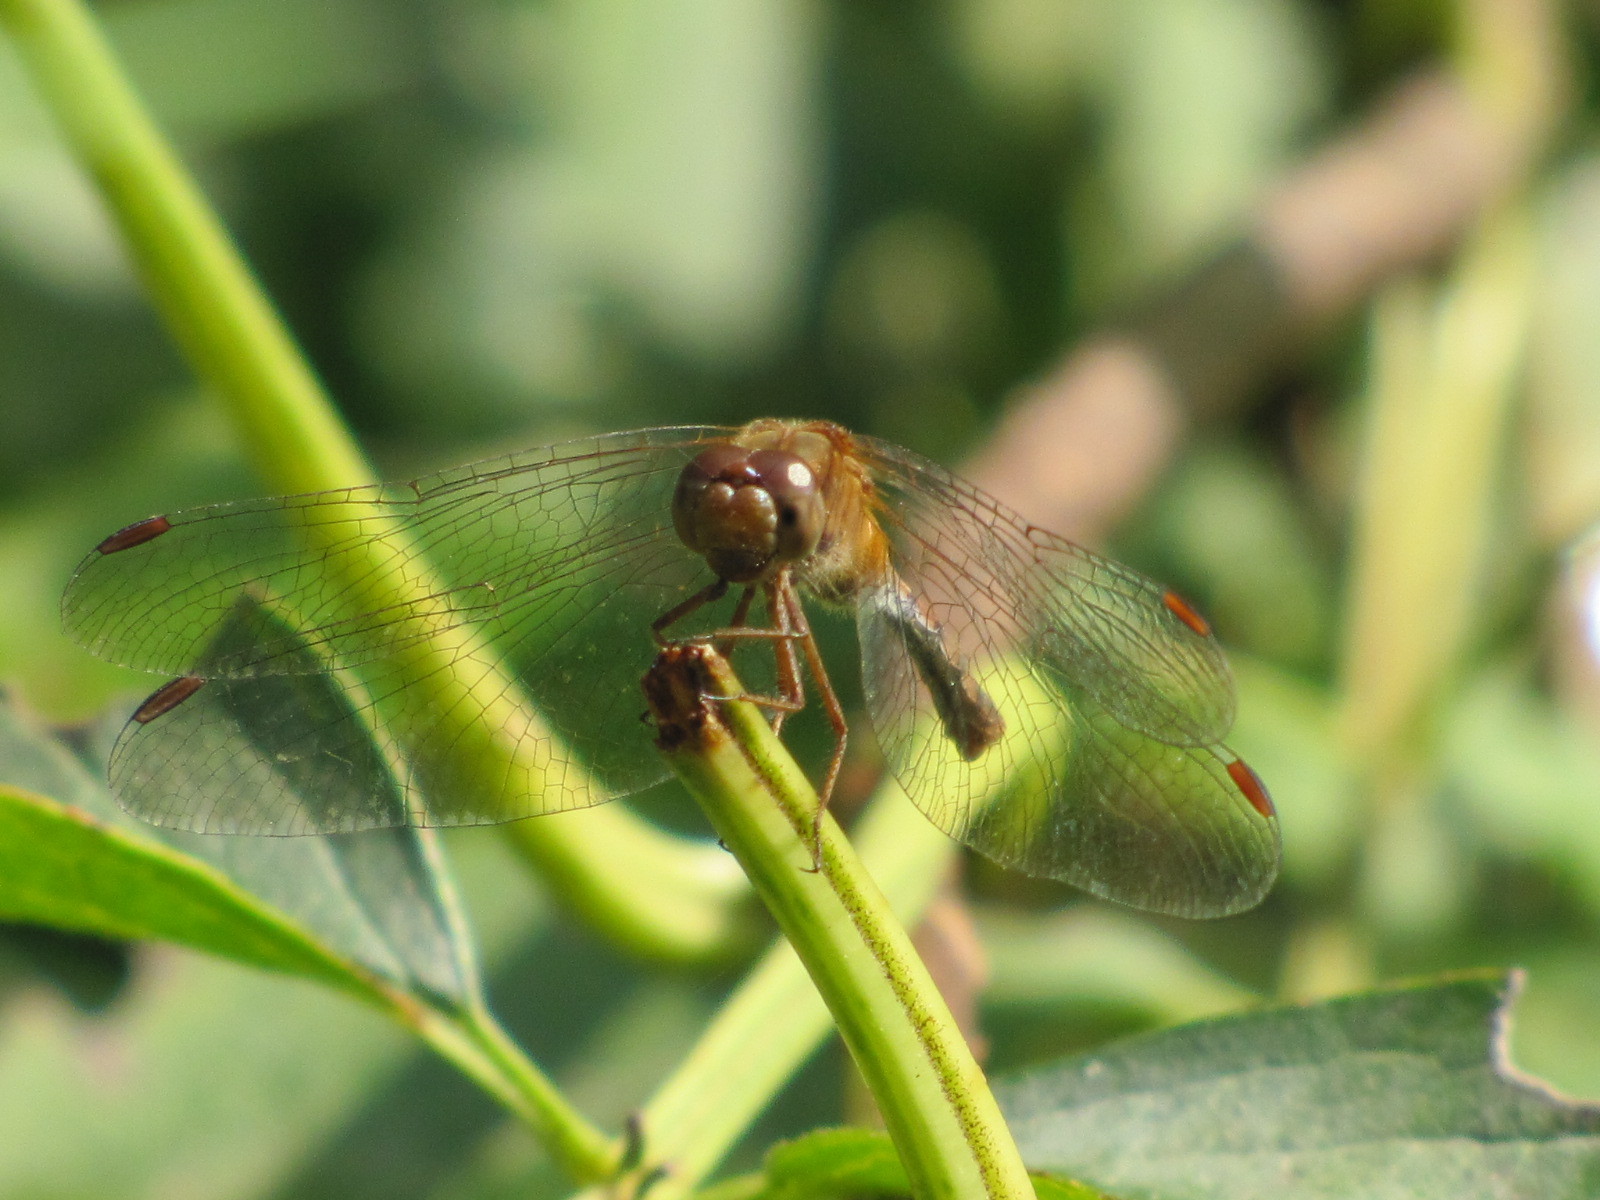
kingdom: Animalia
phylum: Arthropoda
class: Insecta
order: Odonata
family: Libellulidae
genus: Sympetrum
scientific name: Sympetrum vicinum
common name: Autumn meadowhawk
